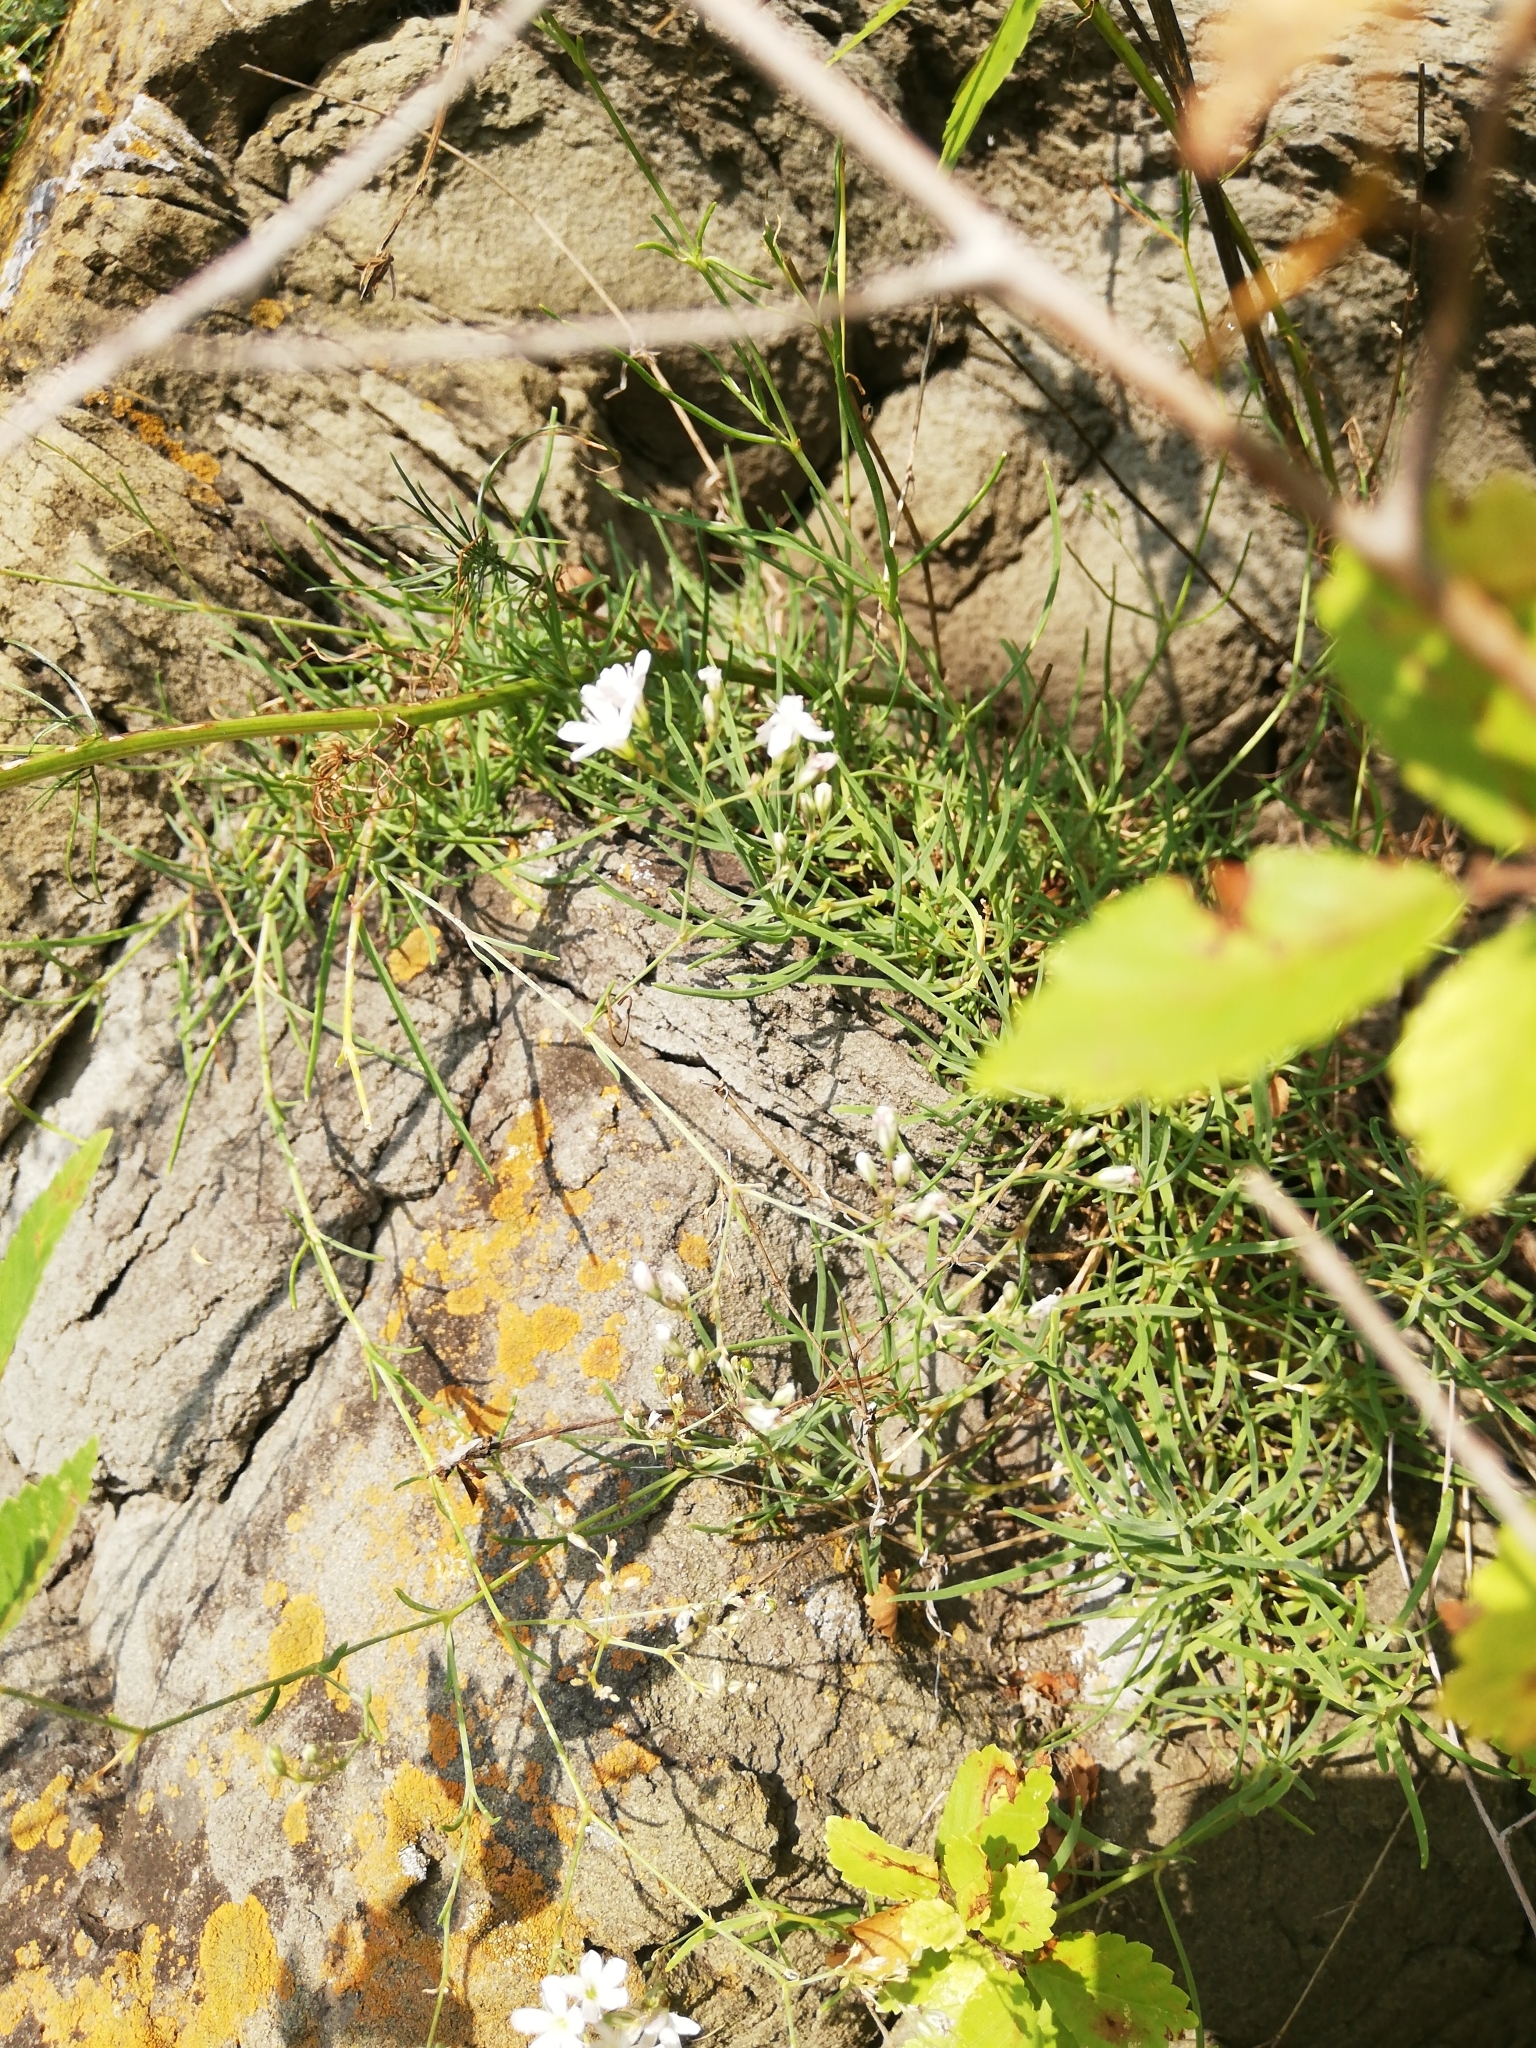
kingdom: Plantae
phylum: Tracheophyta
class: Magnoliopsida
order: Caryophyllales
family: Caryophyllaceae
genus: Gypsophila
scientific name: Gypsophila patrinii
